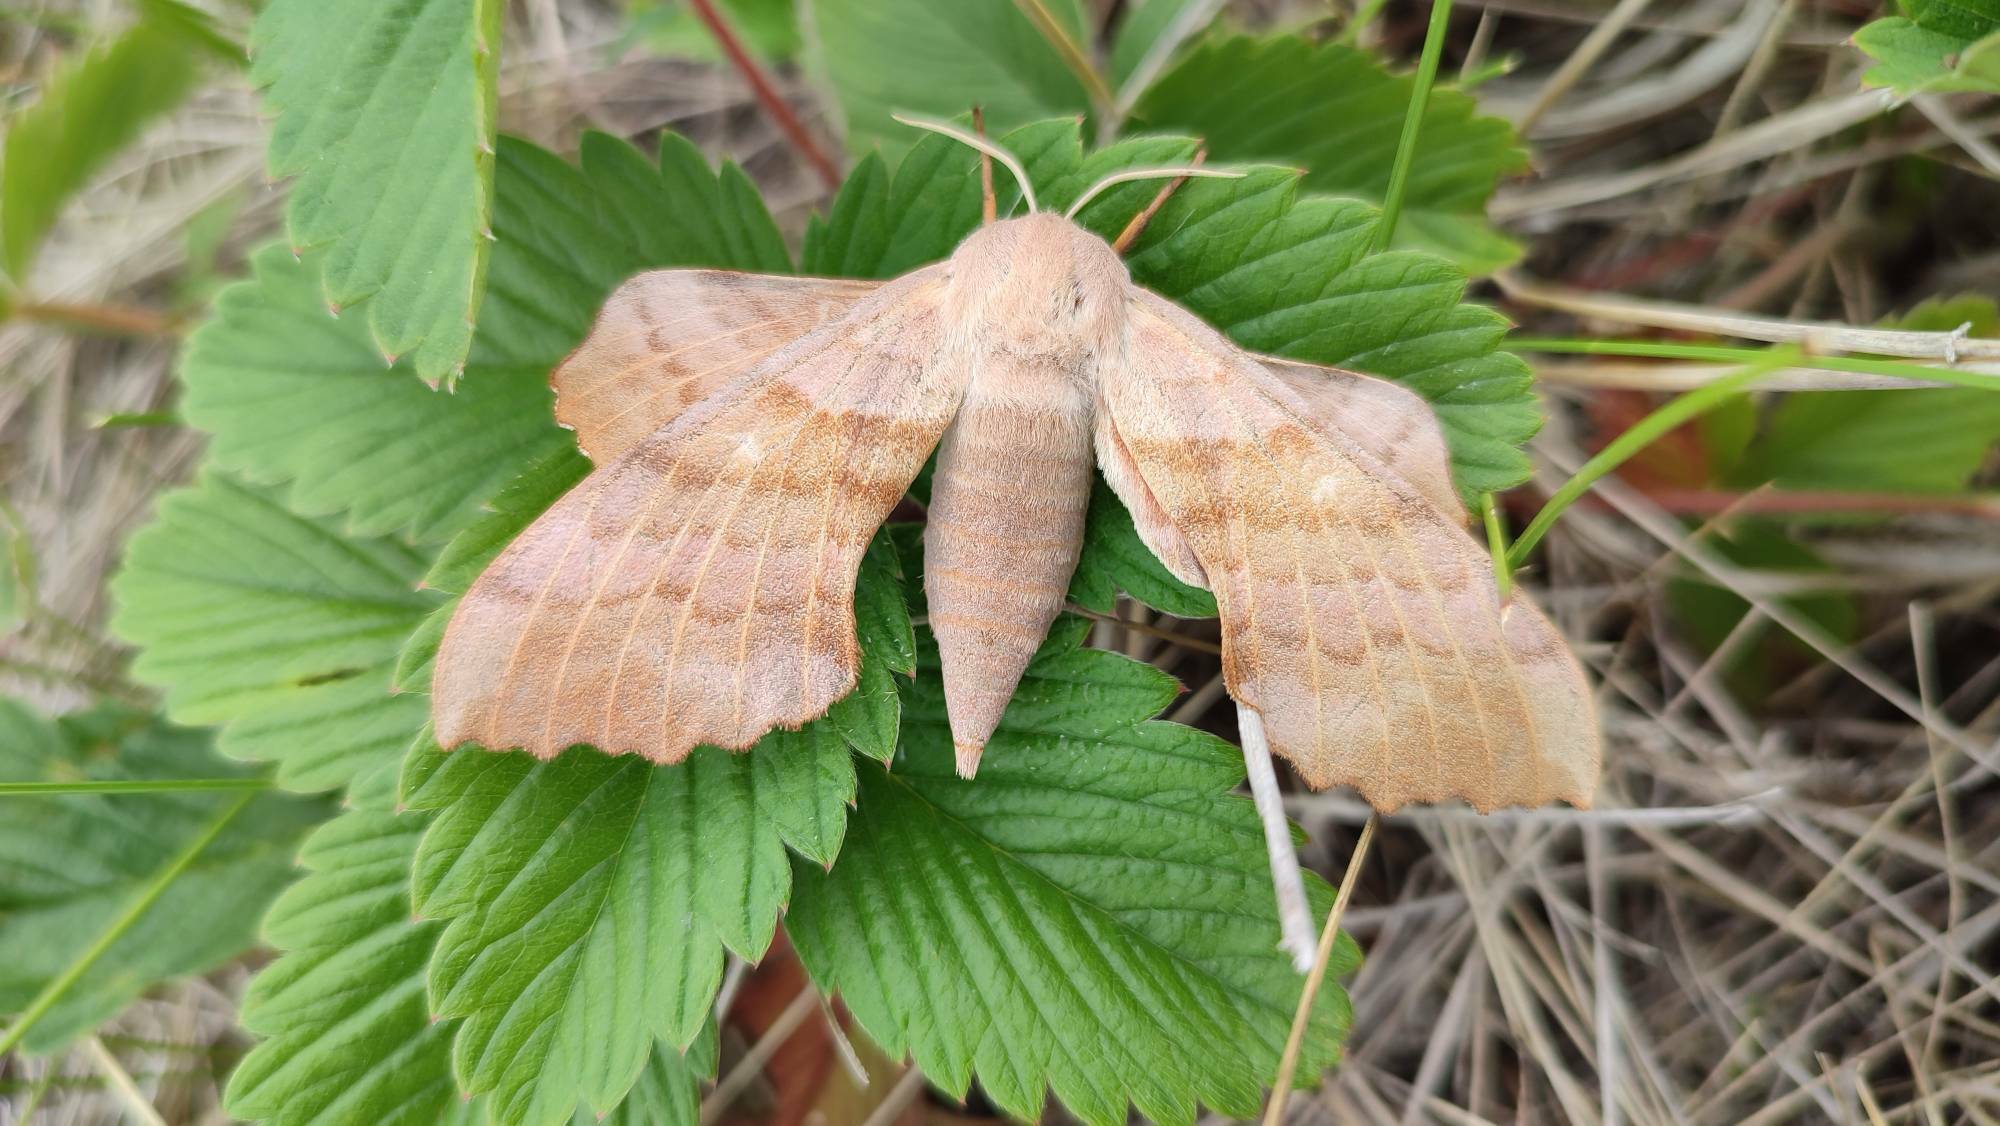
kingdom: Animalia
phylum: Arthropoda
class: Insecta
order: Lepidoptera
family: Sphingidae
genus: Laothoe
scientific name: Laothoe populi
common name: Poplar hawk-moth
